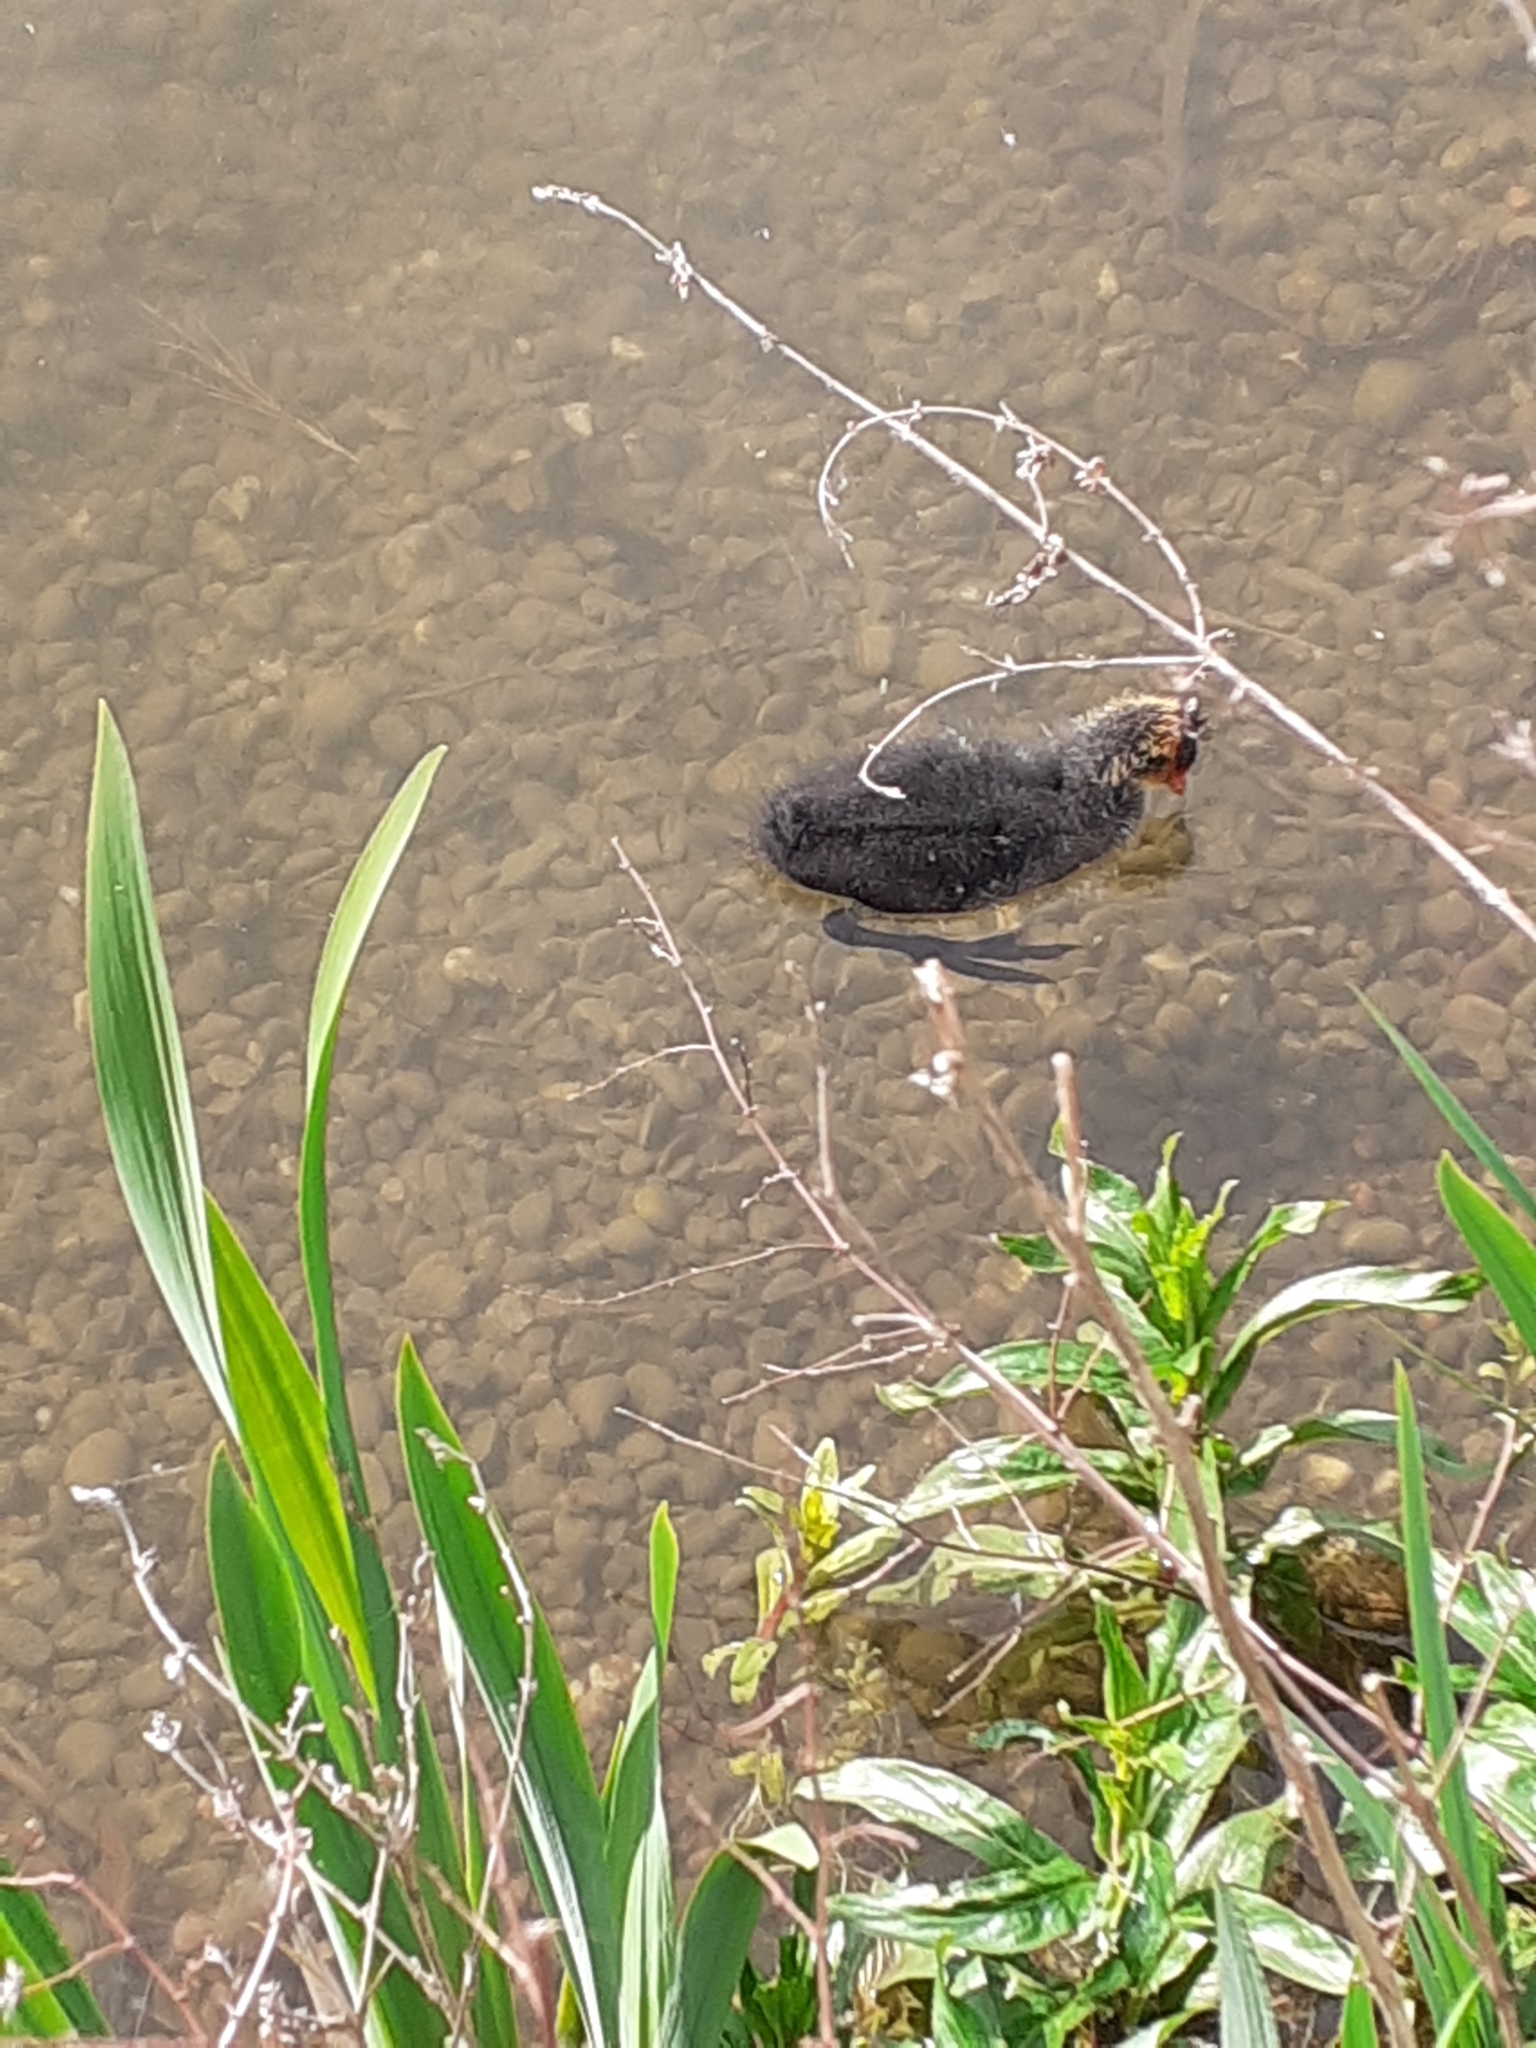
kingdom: Animalia
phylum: Chordata
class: Aves
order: Gruiformes
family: Rallidae
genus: Fulica
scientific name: Fulica atra
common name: Eurasian coot
